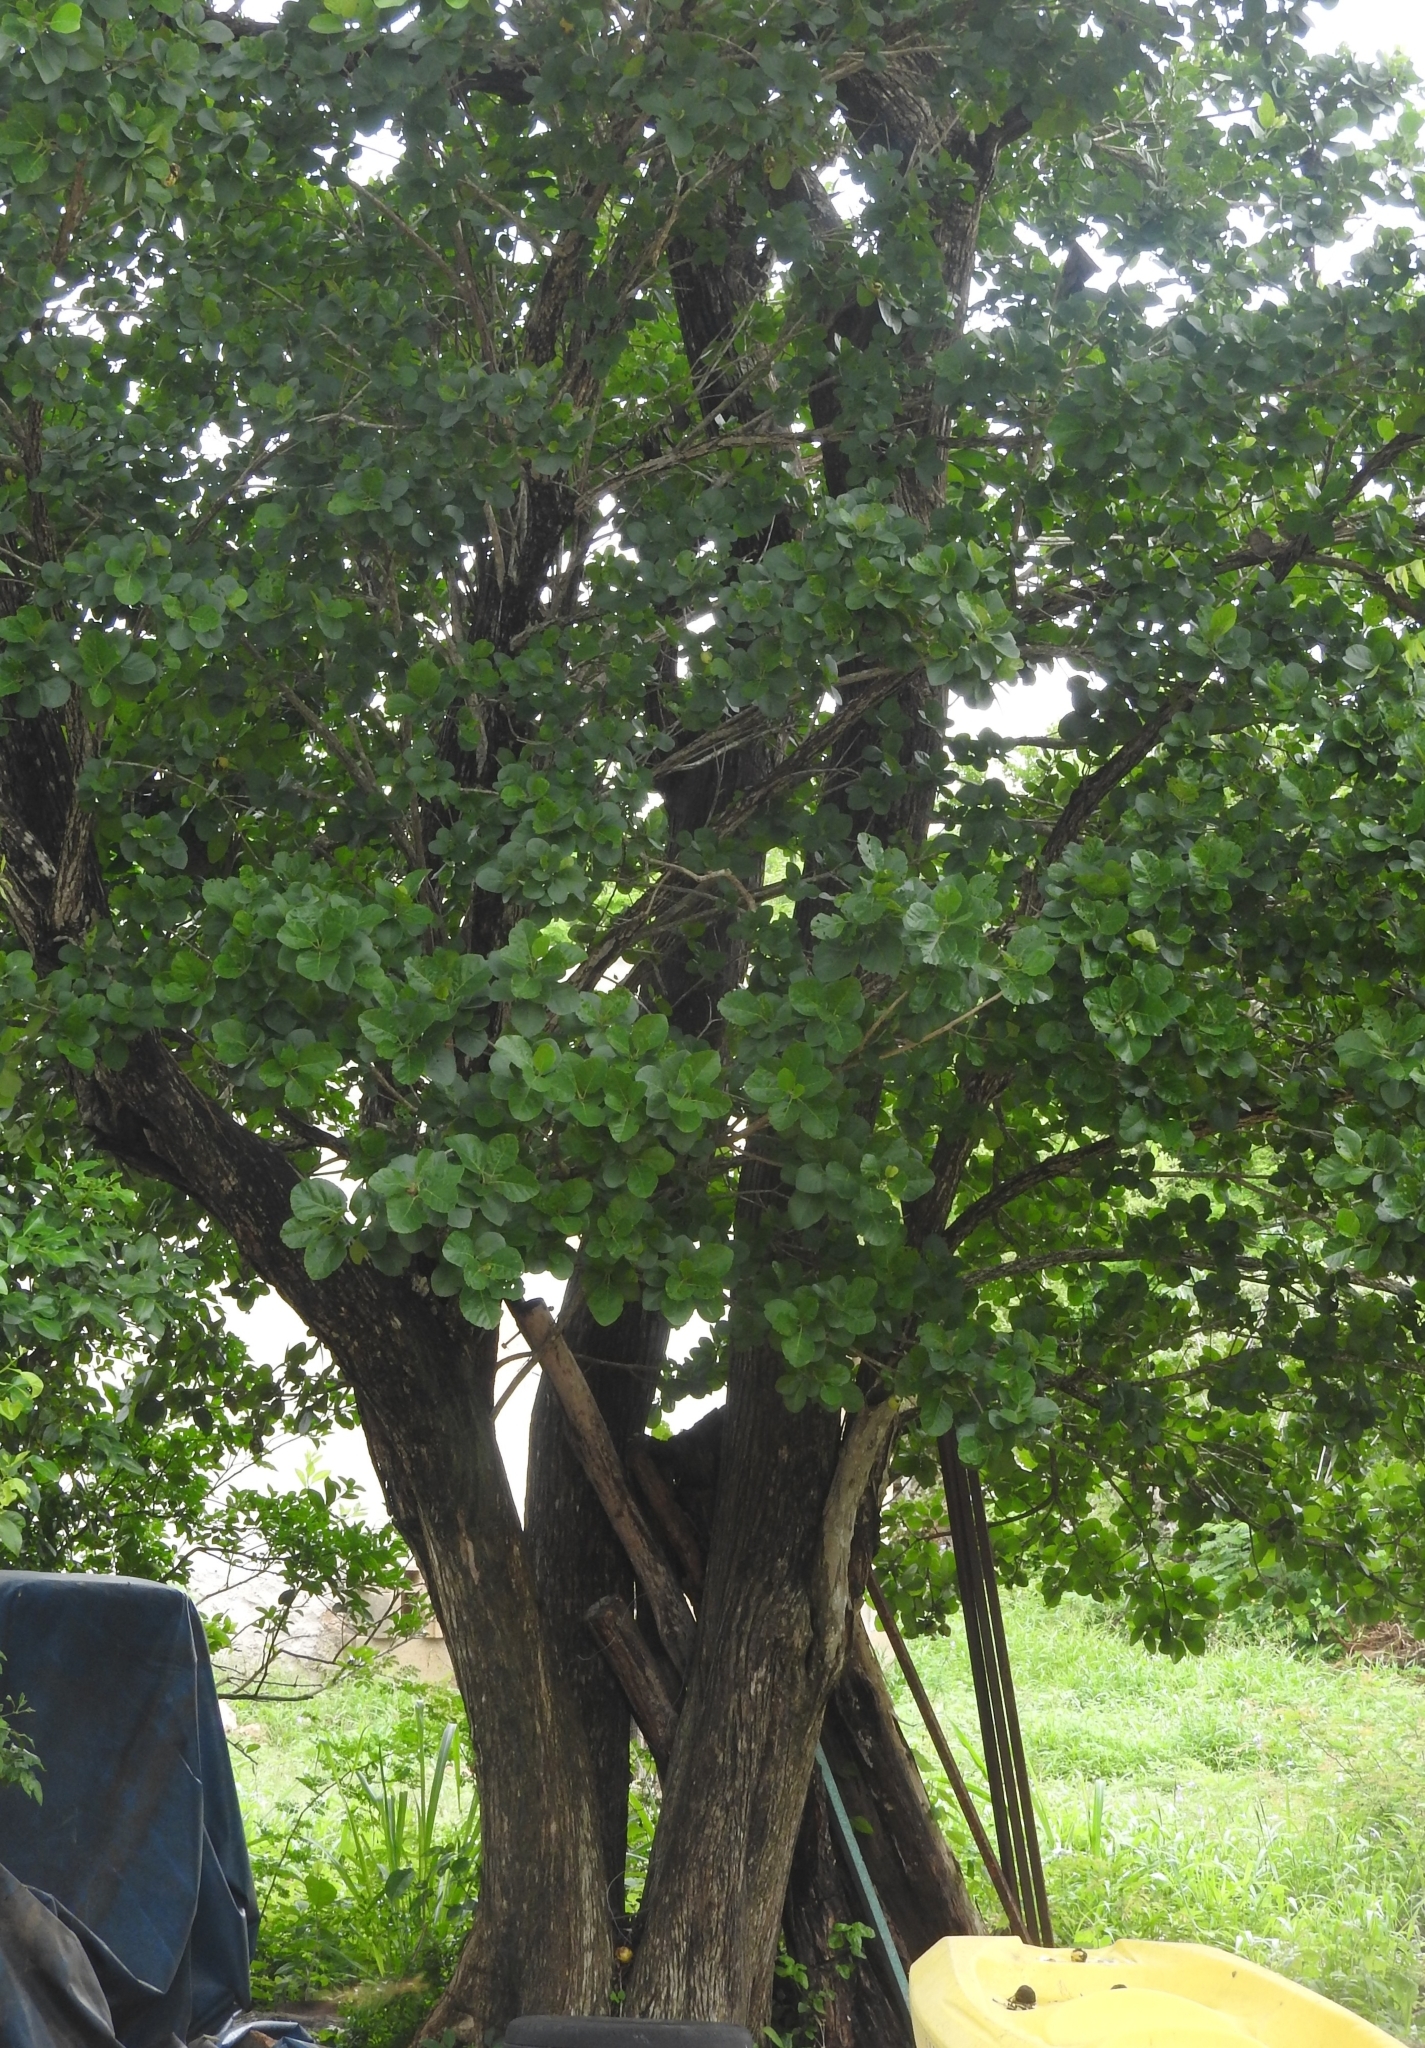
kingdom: Plantae
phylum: Tracheophyta
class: Magnoliopsida
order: Boraginales
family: Cordiaceae
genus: Cordia
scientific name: Cordia dodecandra
